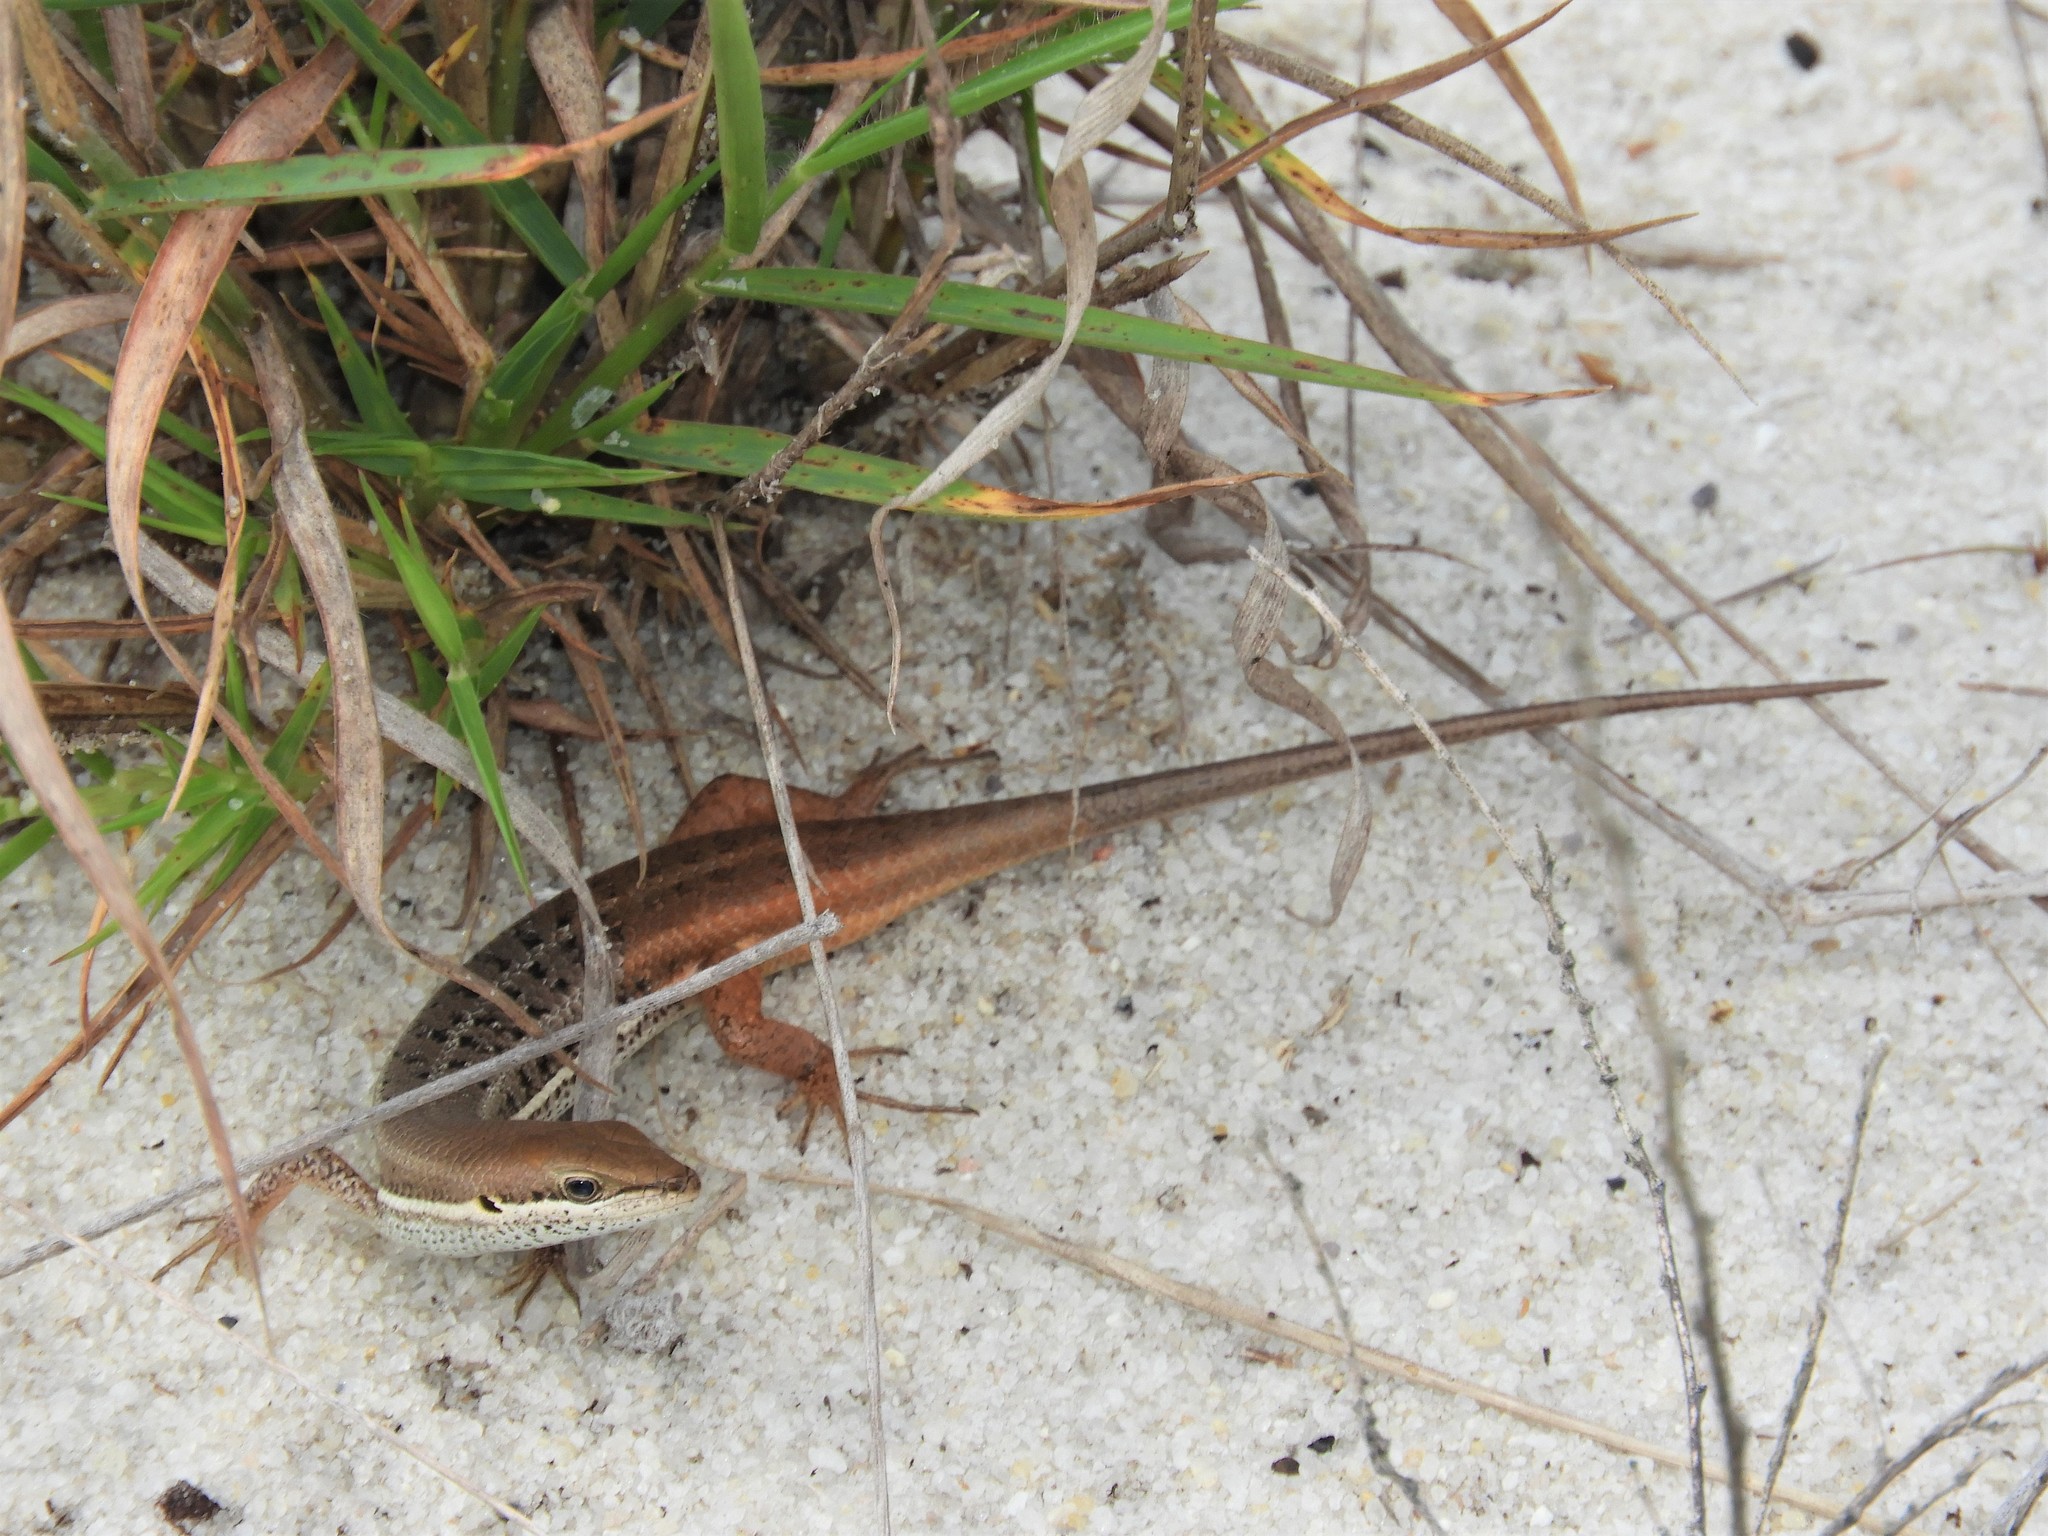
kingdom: Animalia
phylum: Chordata
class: Squamata
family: Scincidae
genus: Trachylepis
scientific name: Trachylepis varia
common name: Eastern variable skink
